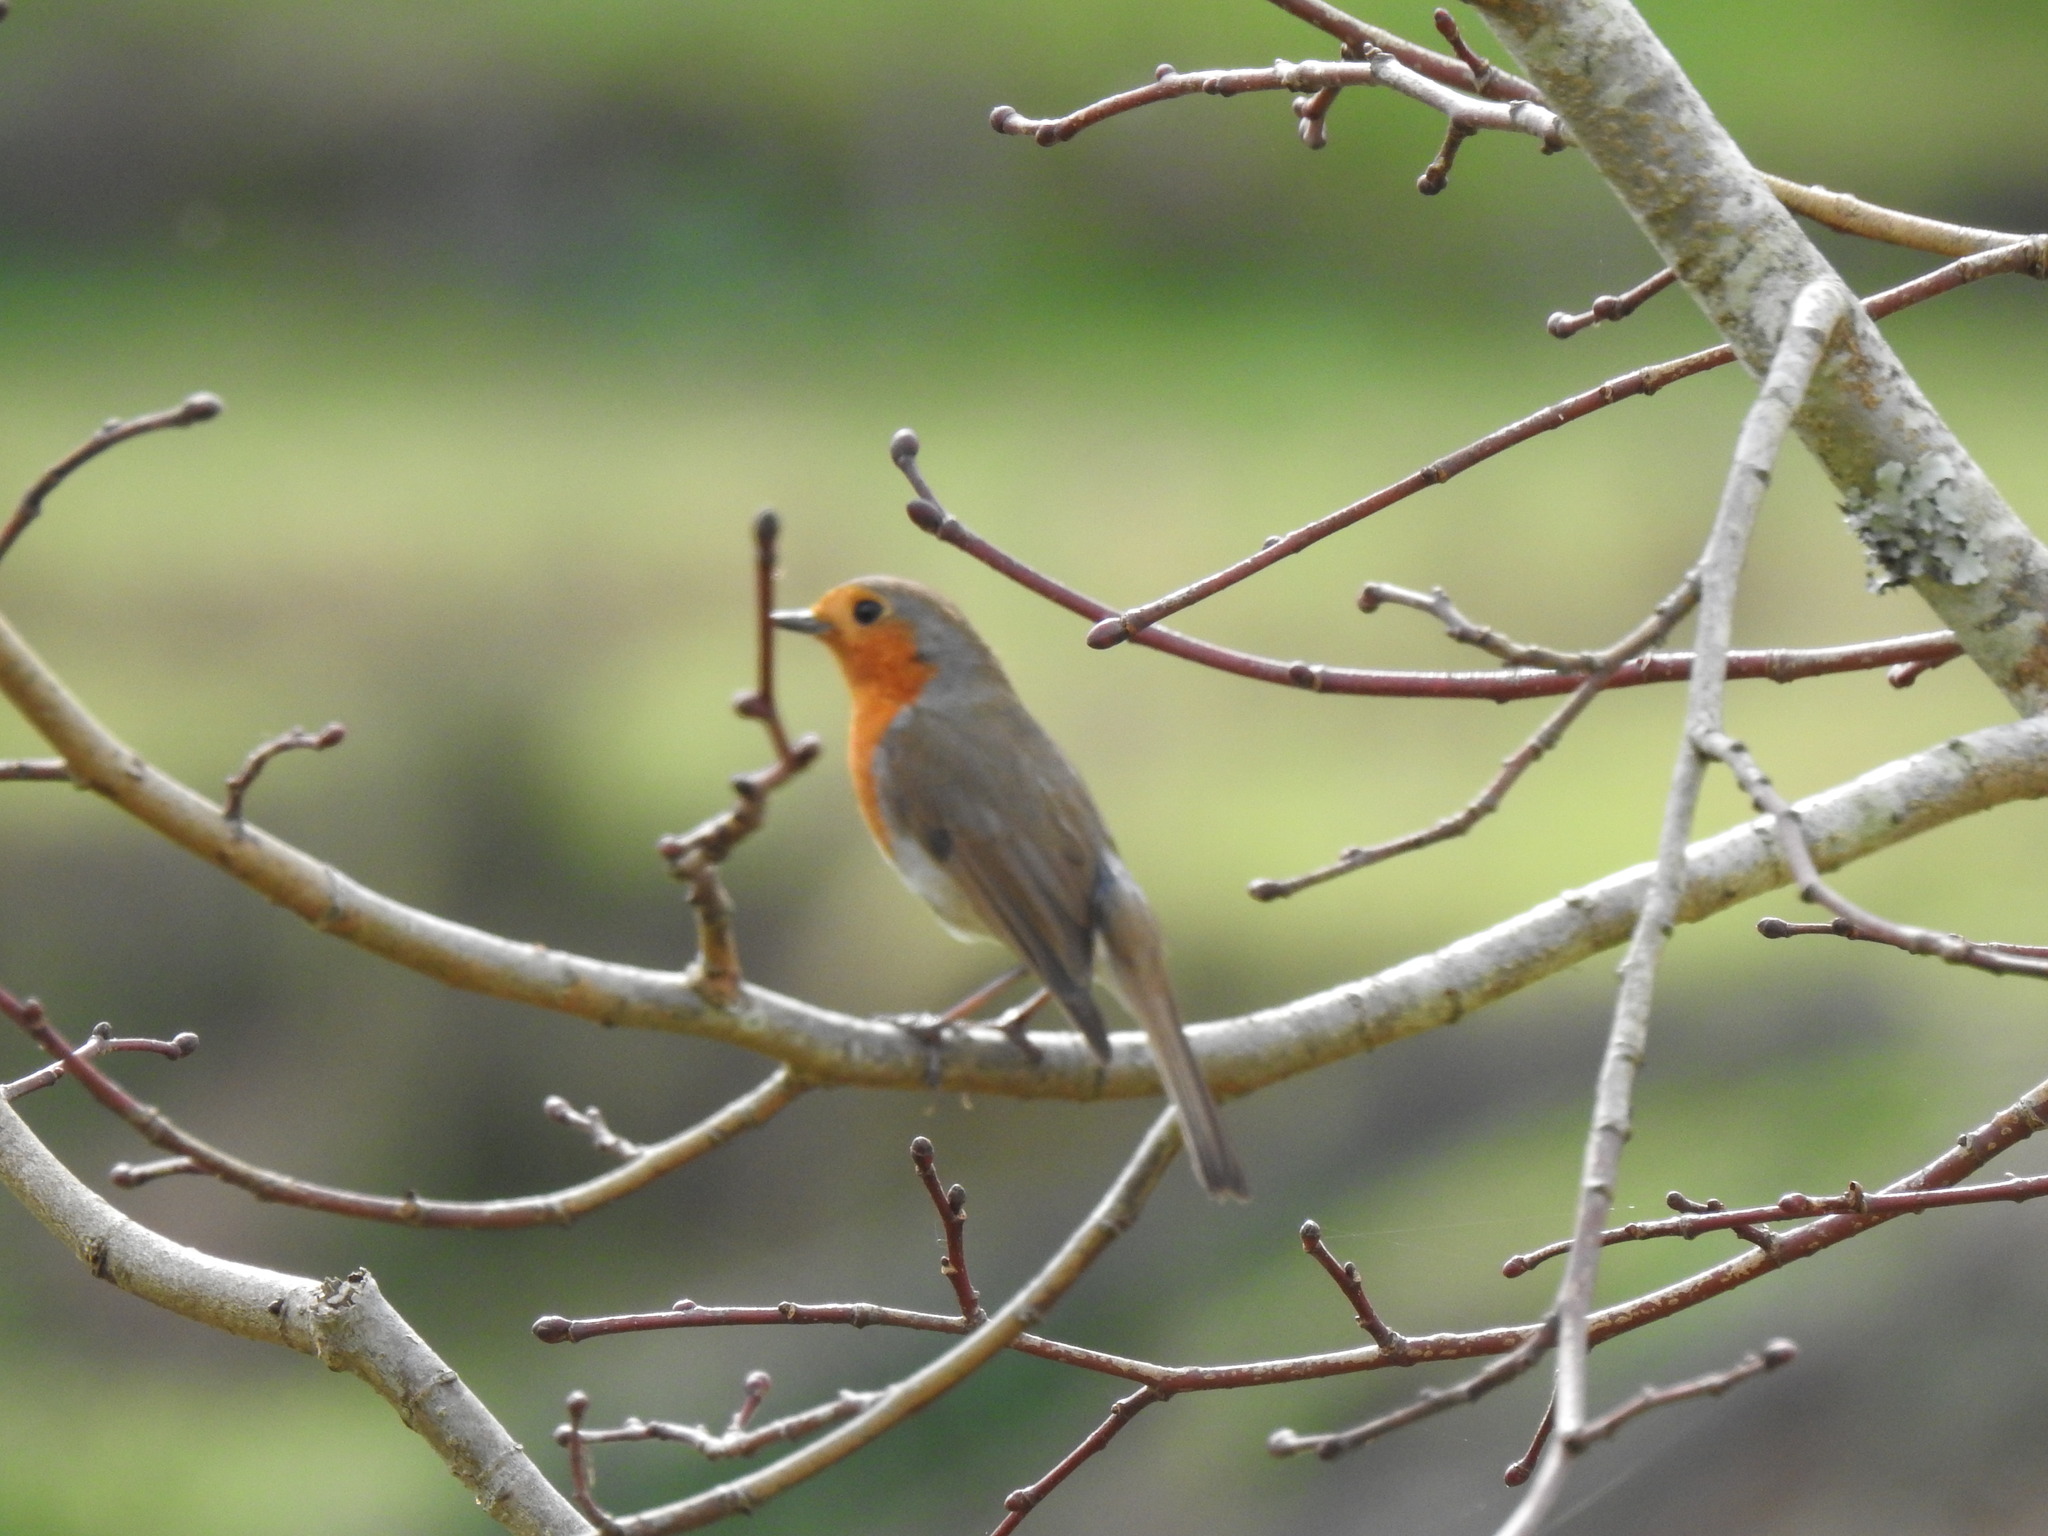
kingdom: Animalia
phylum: Chordata
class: Aves
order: Passeriformes
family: Muscicapidae
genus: Erithacus
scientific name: Erithacus rubecula
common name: European robin
